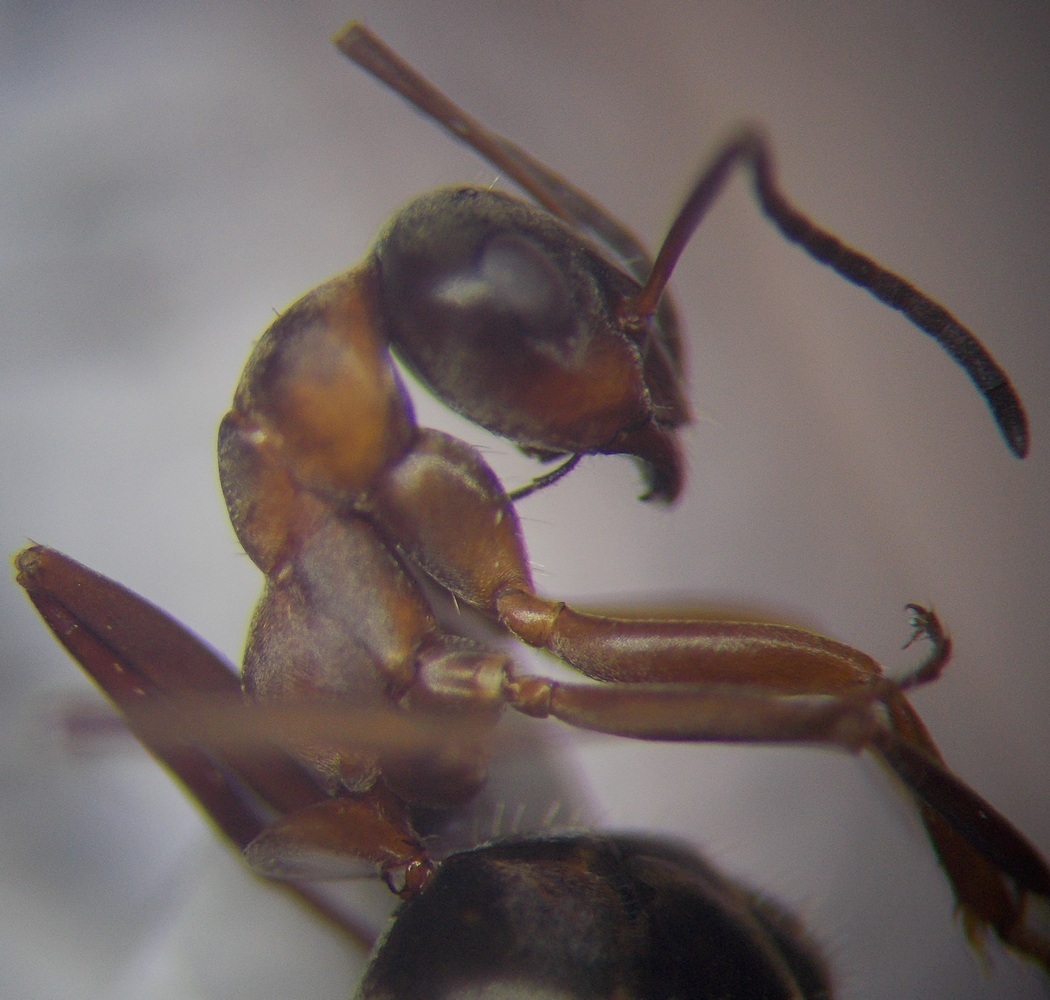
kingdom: Animalia
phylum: Arthropoda
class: Insecta
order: Hymenoptera
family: Formicidae
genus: Formica
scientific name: Formica cunicularia
